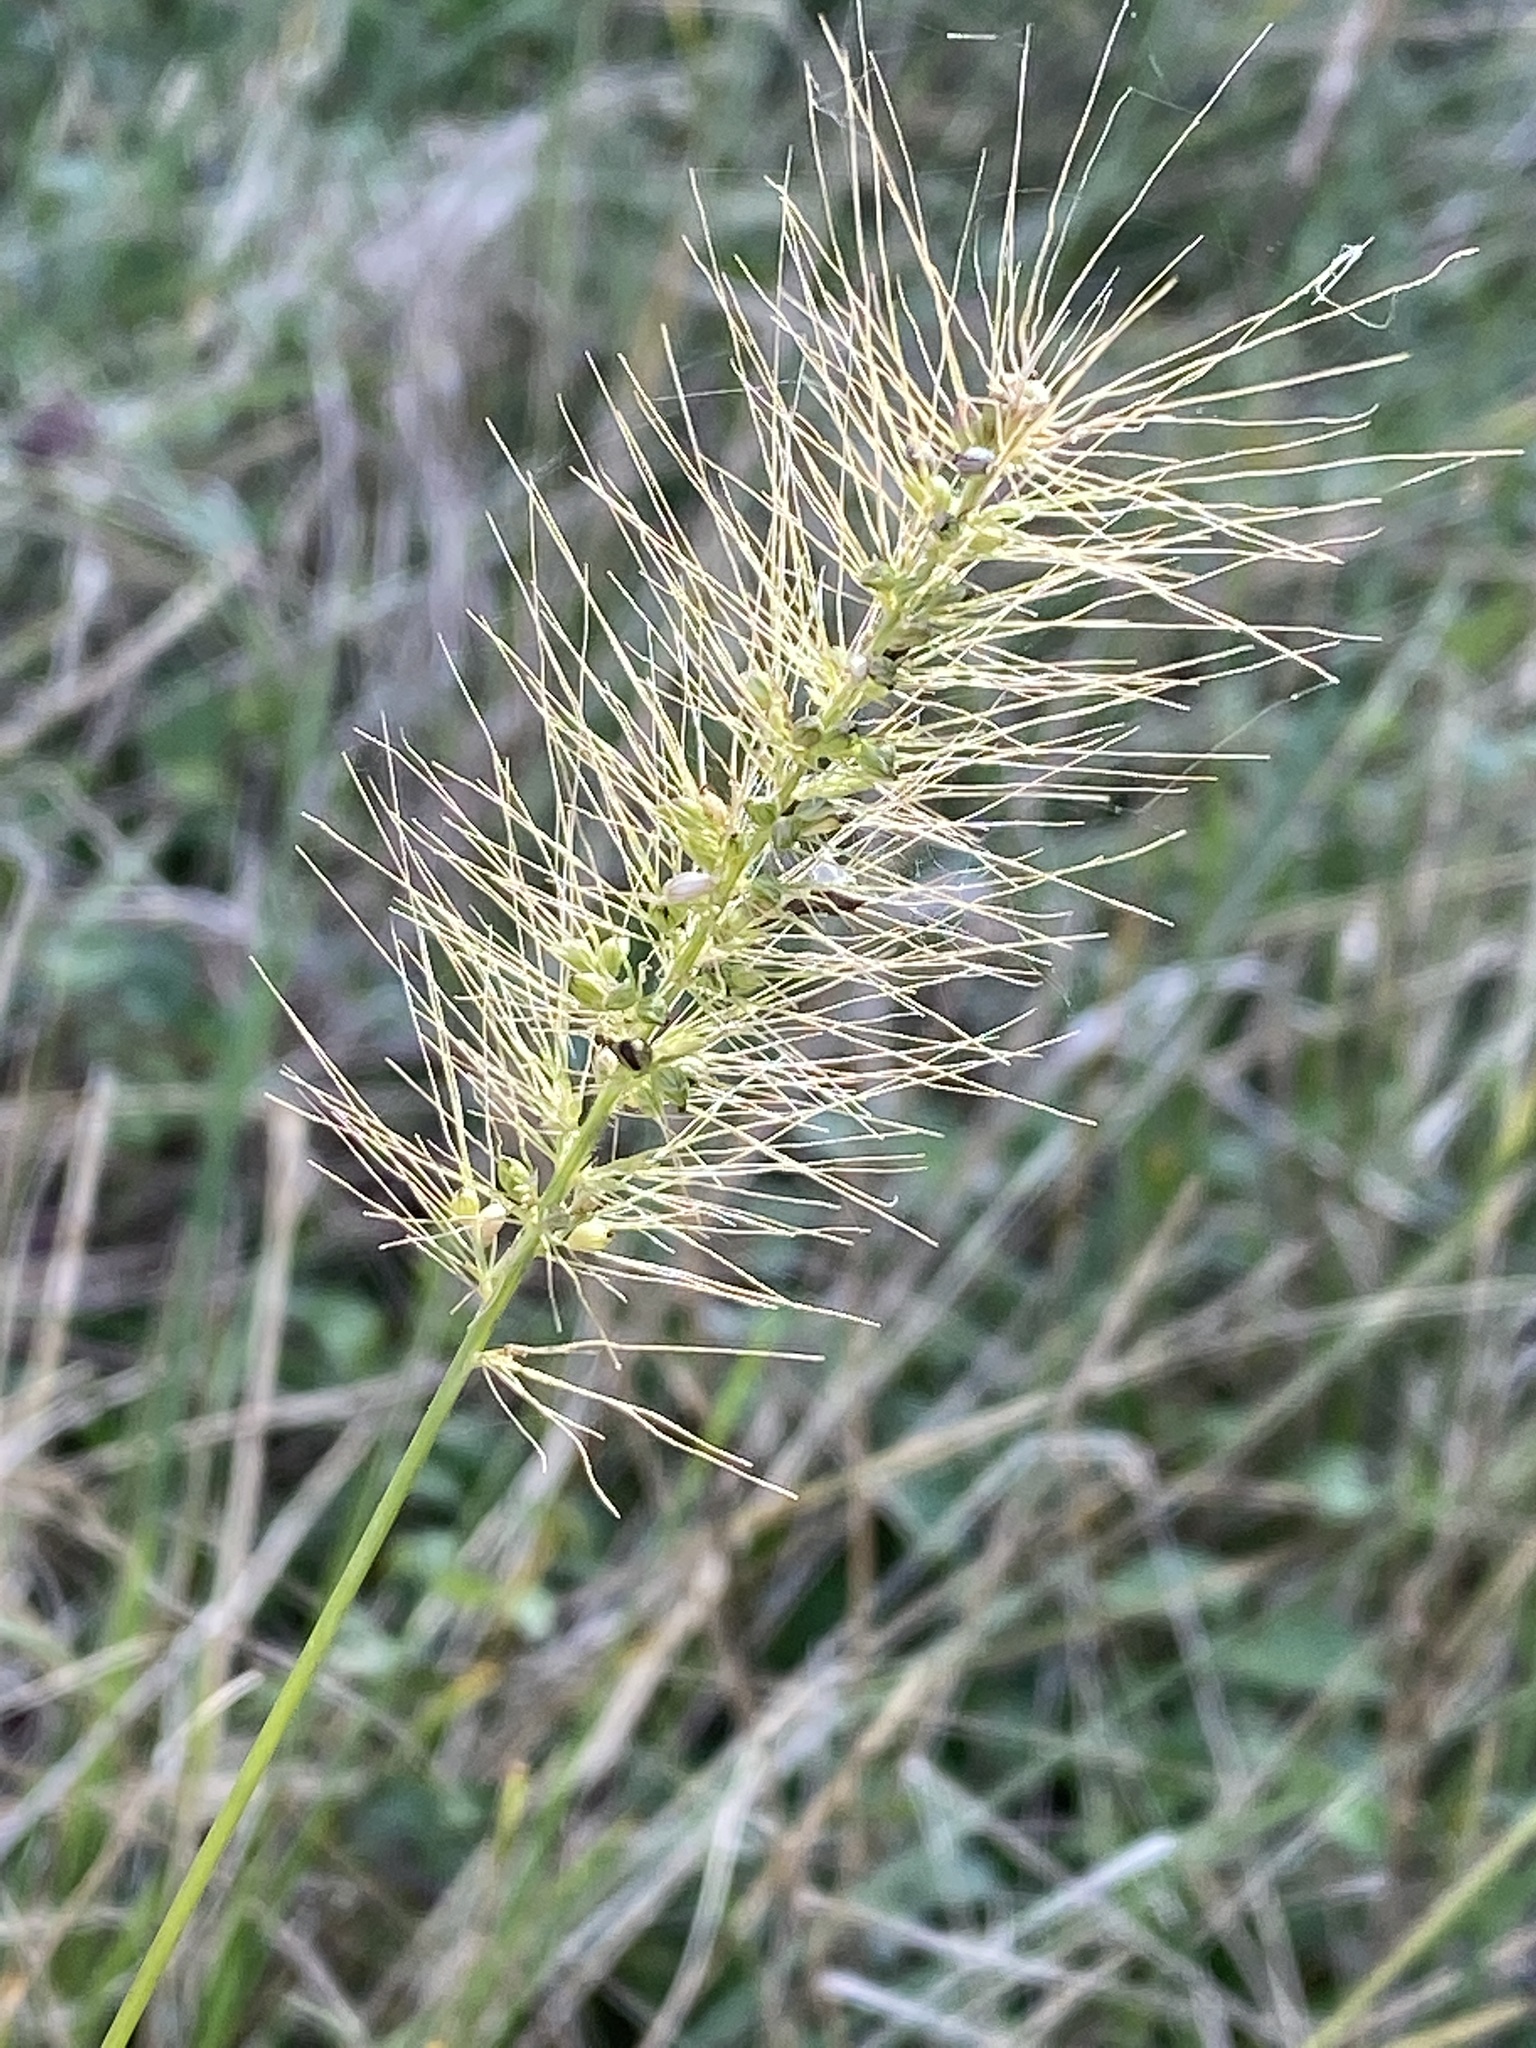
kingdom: Plantae
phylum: Tracheophyta
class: Liliopsida
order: Poales
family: Poaceae
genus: Setaria
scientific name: Setaria scheelei
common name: Southwestern bristle grass
